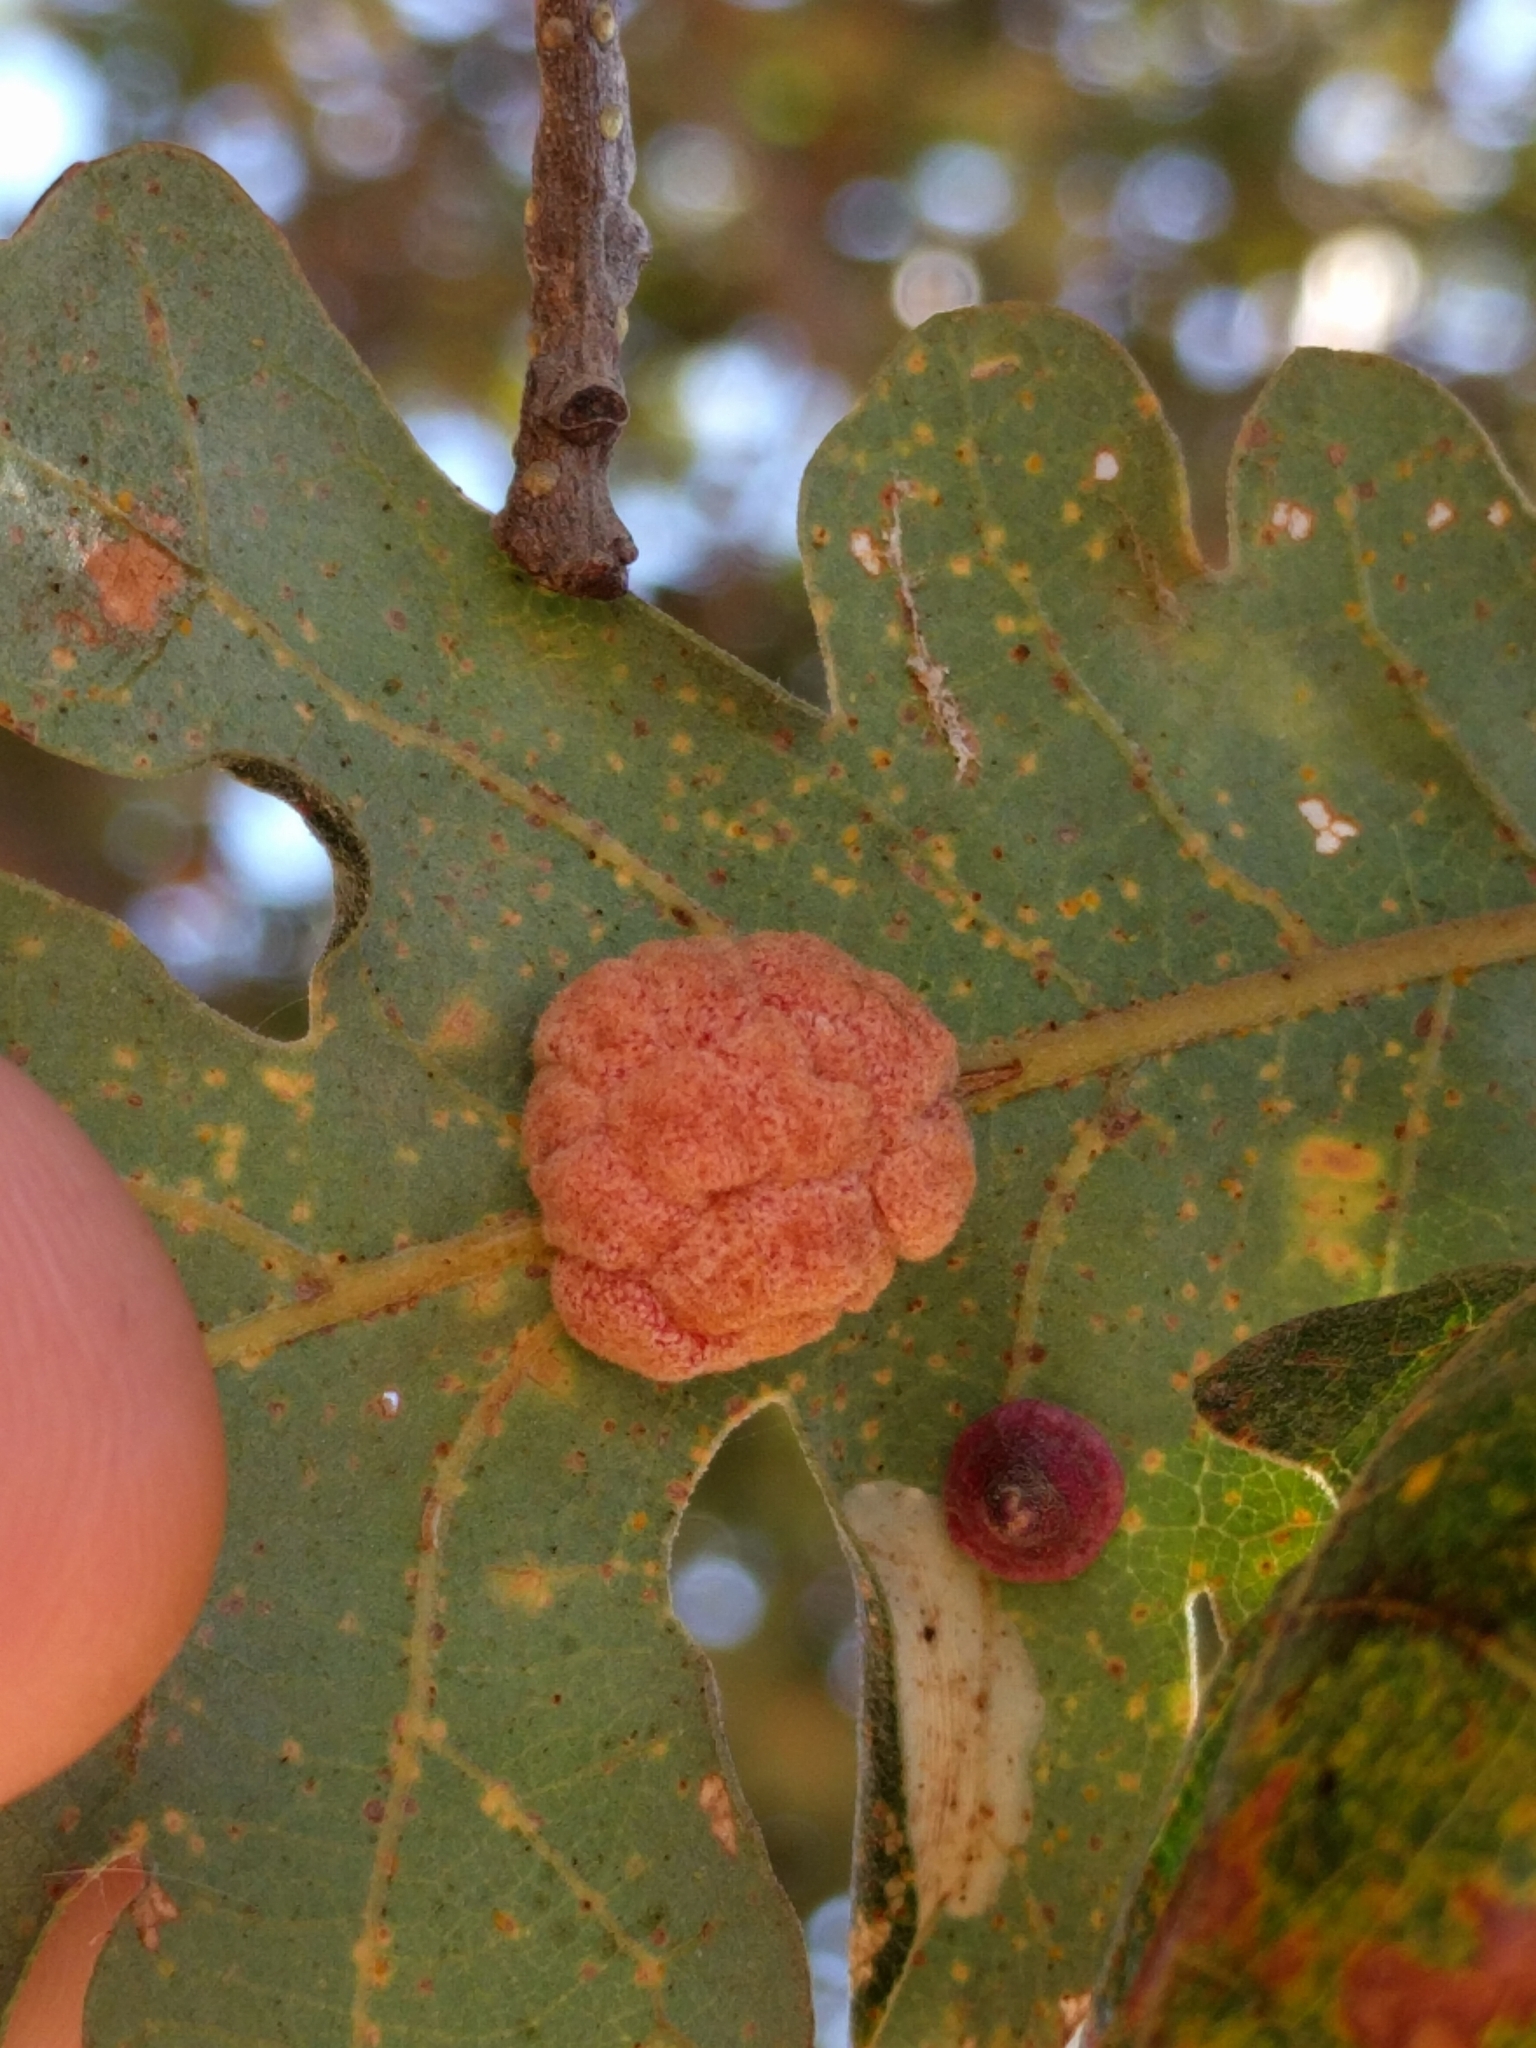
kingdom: Animalia
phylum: Arthropoda
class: Insecta
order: Hymenoptera
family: Cynipidae
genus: Andricus
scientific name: Andricus
